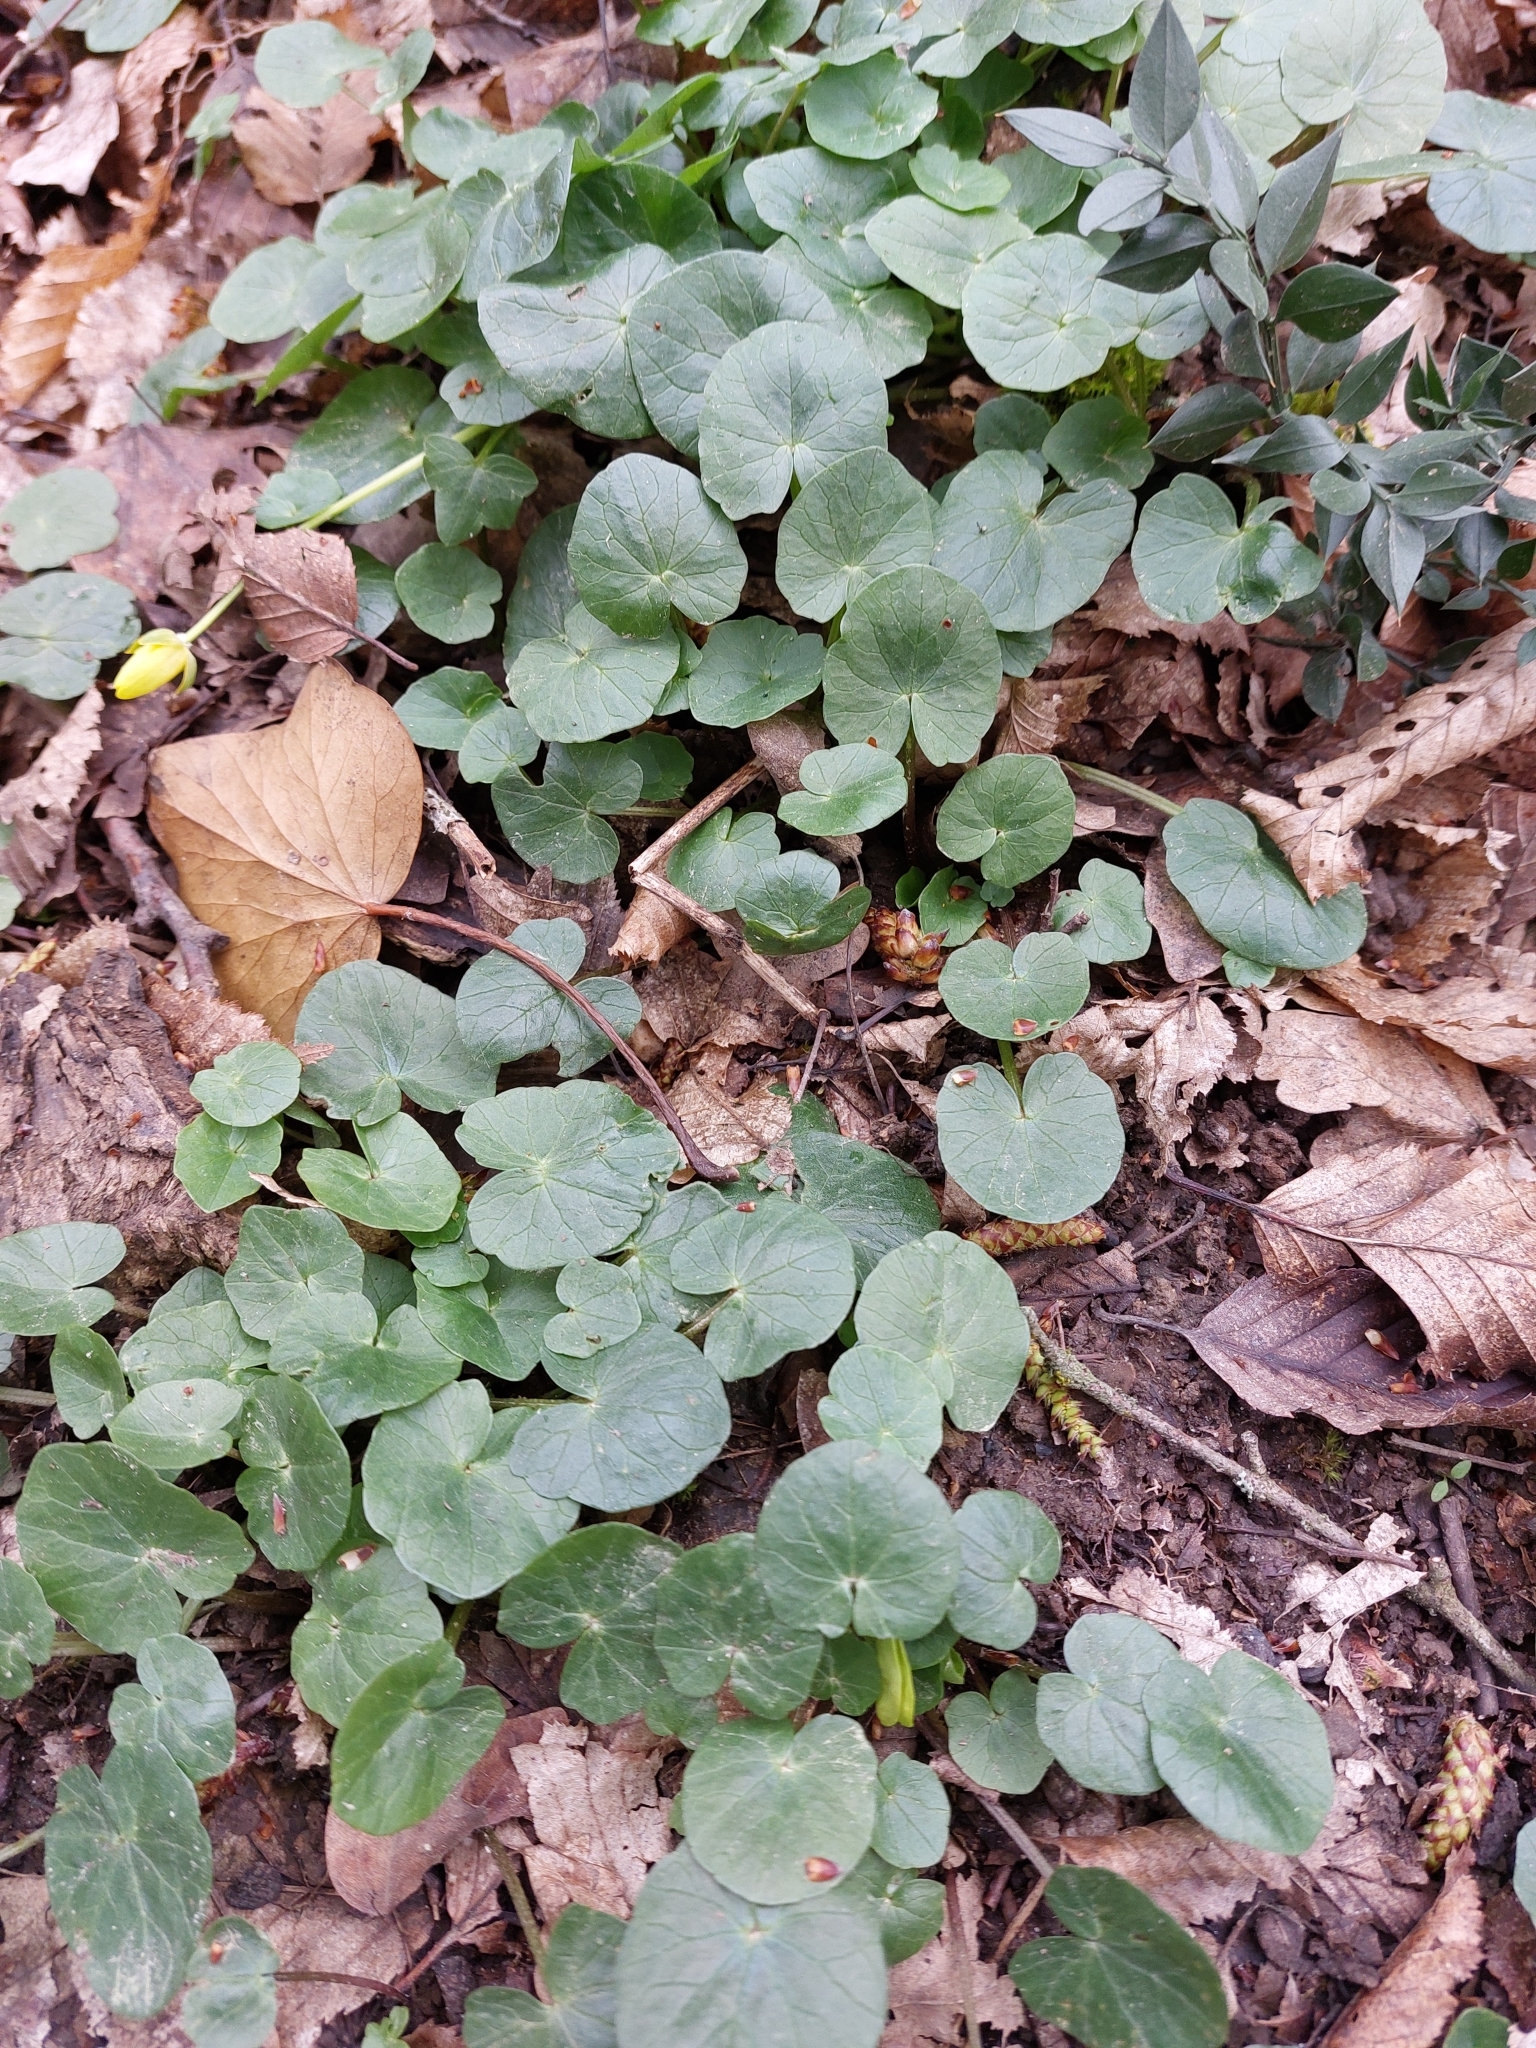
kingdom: Plantae
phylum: Tracheophyta
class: Magnoliopsida
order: Ranunculales
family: Ranunculaceae
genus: Ficaria
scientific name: Ficaria verna
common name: Lesser celandine
